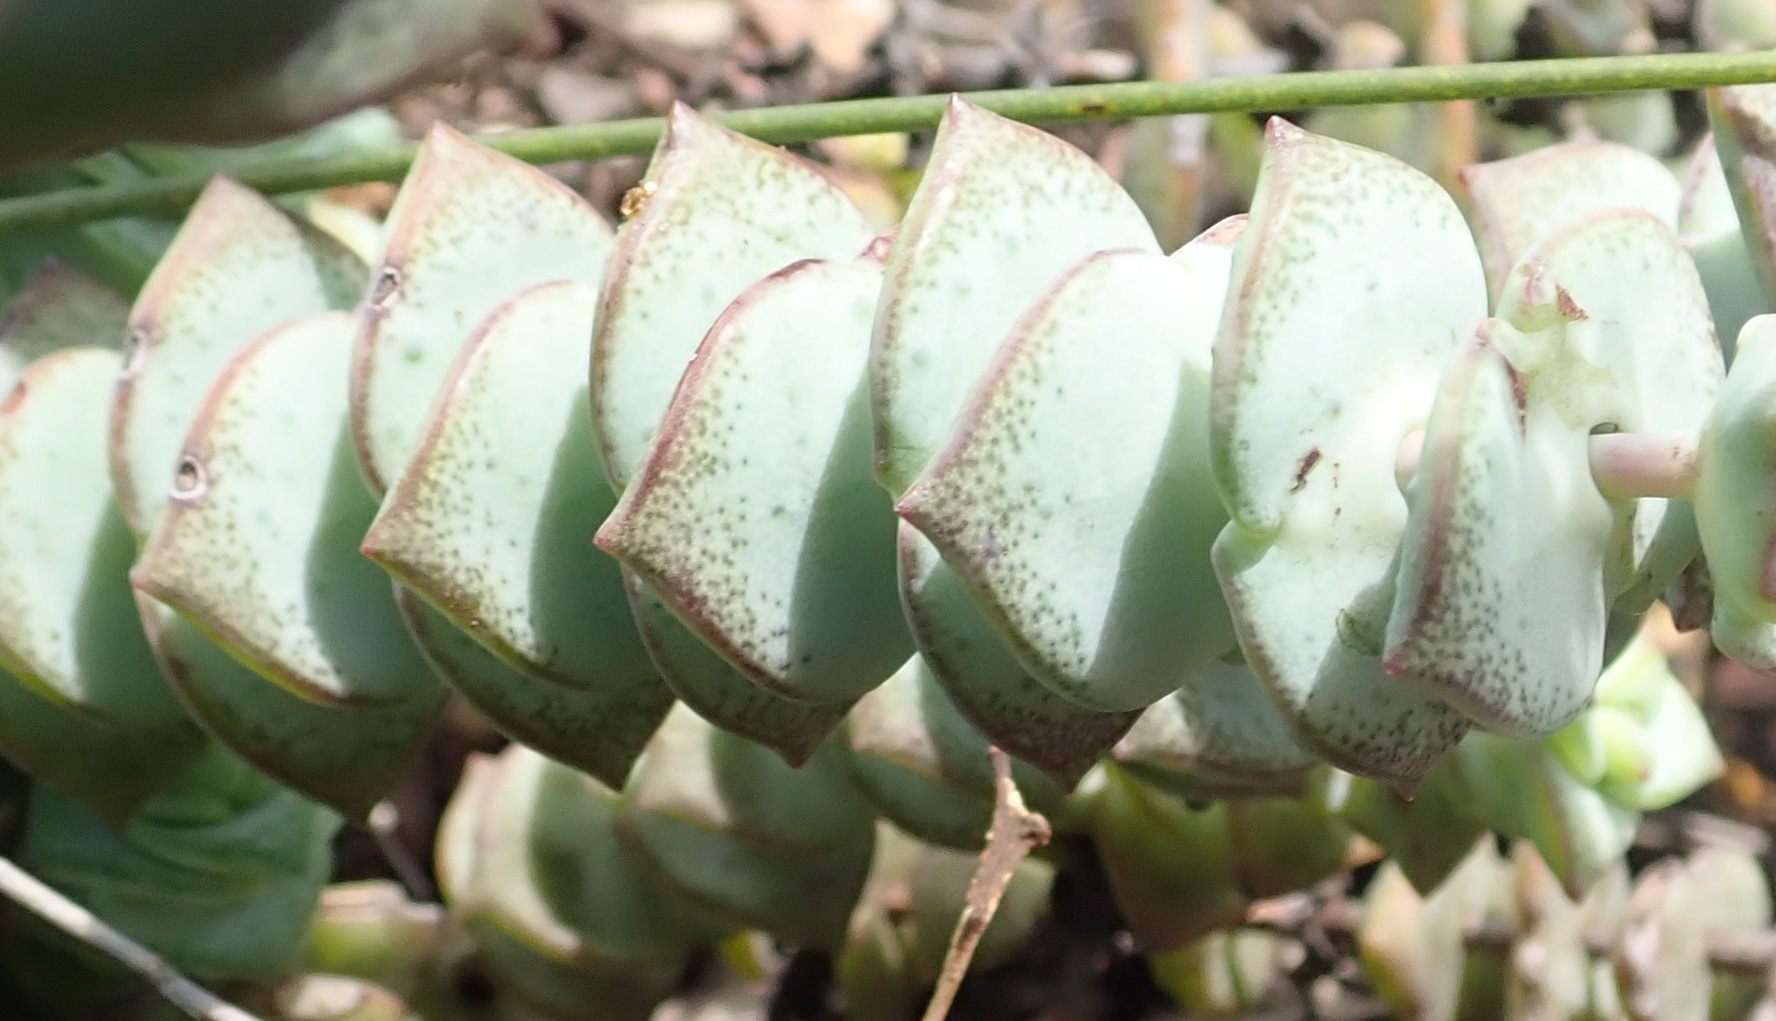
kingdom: Plantae
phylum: Tracheophyta
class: Magnoliopsida
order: Saxifragales
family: Crassulaceae
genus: Crassula
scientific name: Crassula perforata
